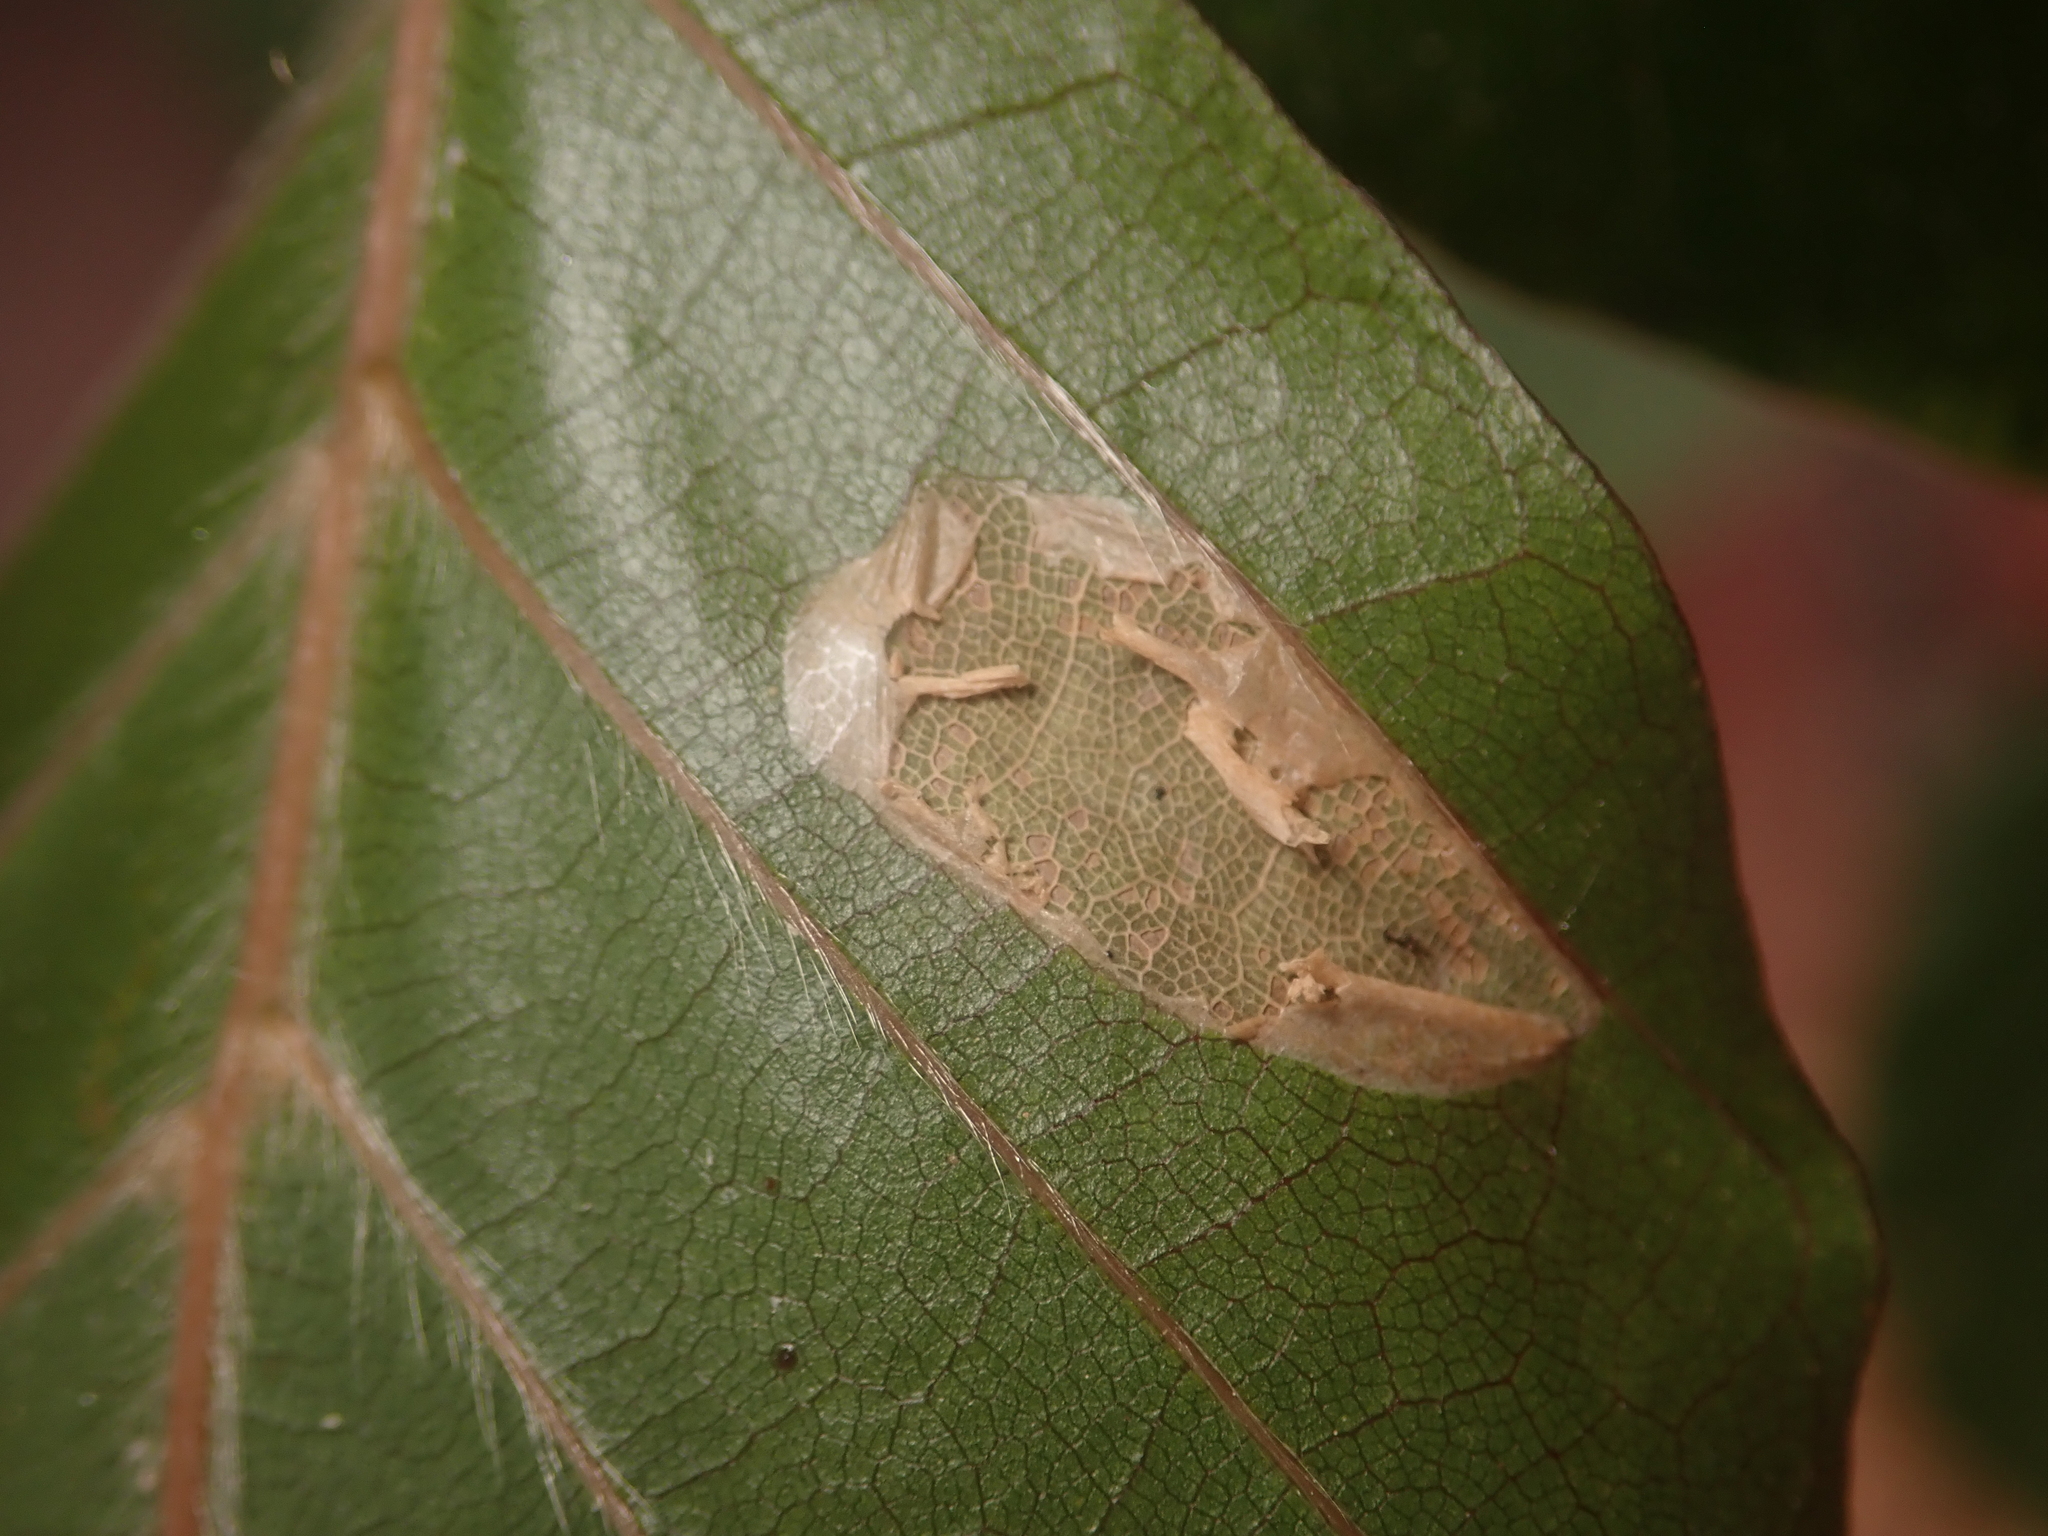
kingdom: Animalia
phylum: Arthropoda
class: Insecta
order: Lepidoptera
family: Gracillariidae
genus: Parornix
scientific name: Parornix fagivora
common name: Beech slender
